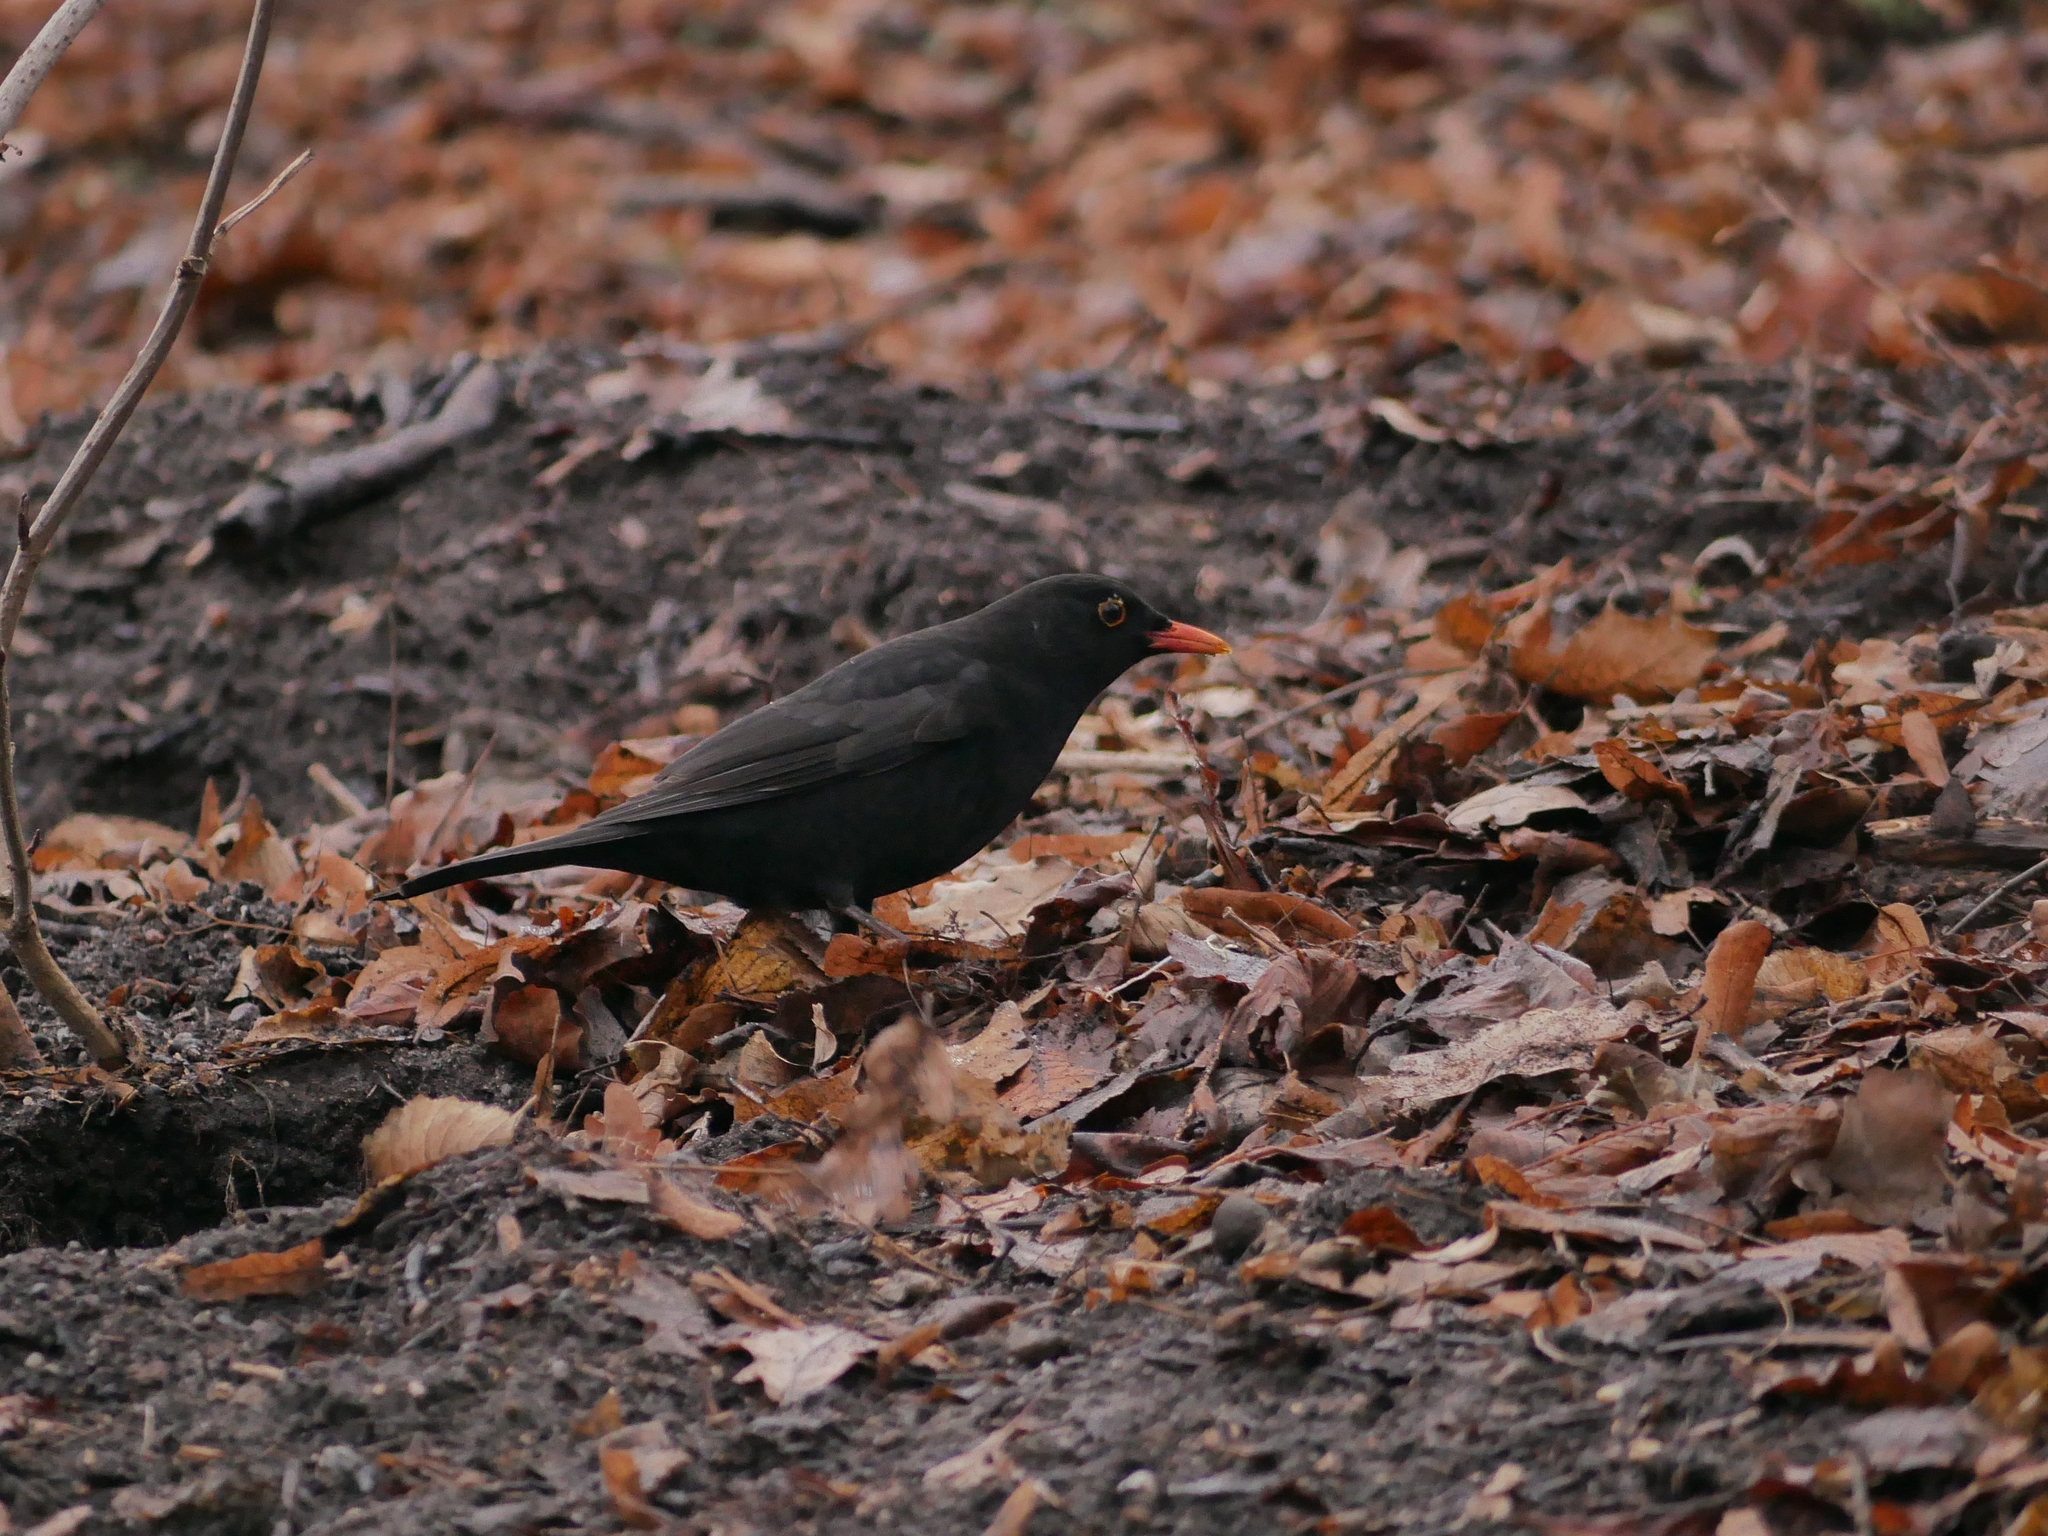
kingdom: Animalia
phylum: Chordata
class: Aves
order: Passeriformes
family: Turdidae
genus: Turdus
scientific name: Turdus merula
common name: Common blackbird
